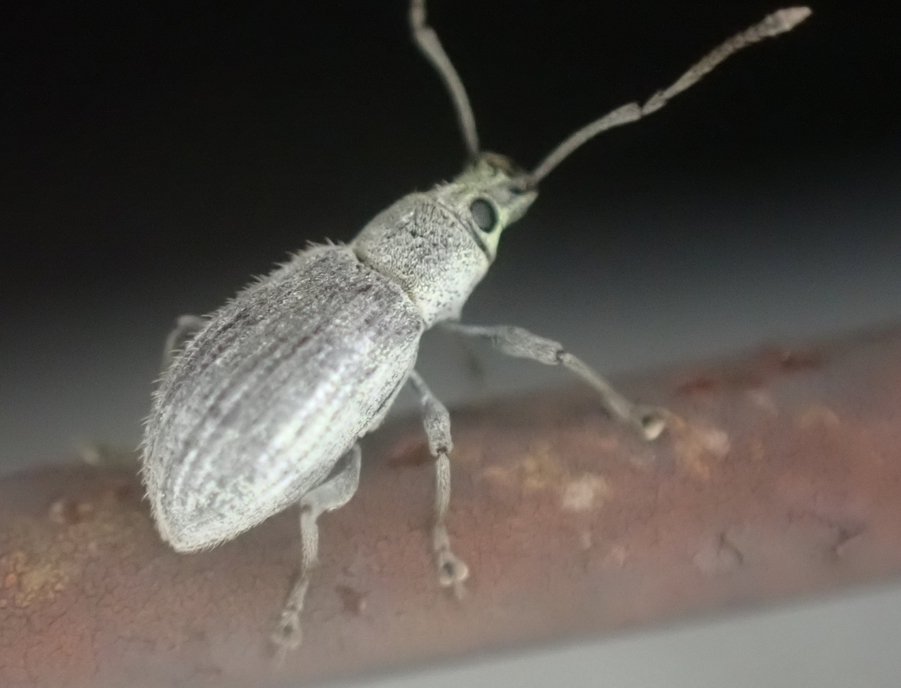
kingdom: Animalia
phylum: Arthropoda
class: Insecta
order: Coleoptera
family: Curculionidae
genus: Cyrtepistomus
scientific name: Cyrtepistomus castaneus
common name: Weevil
